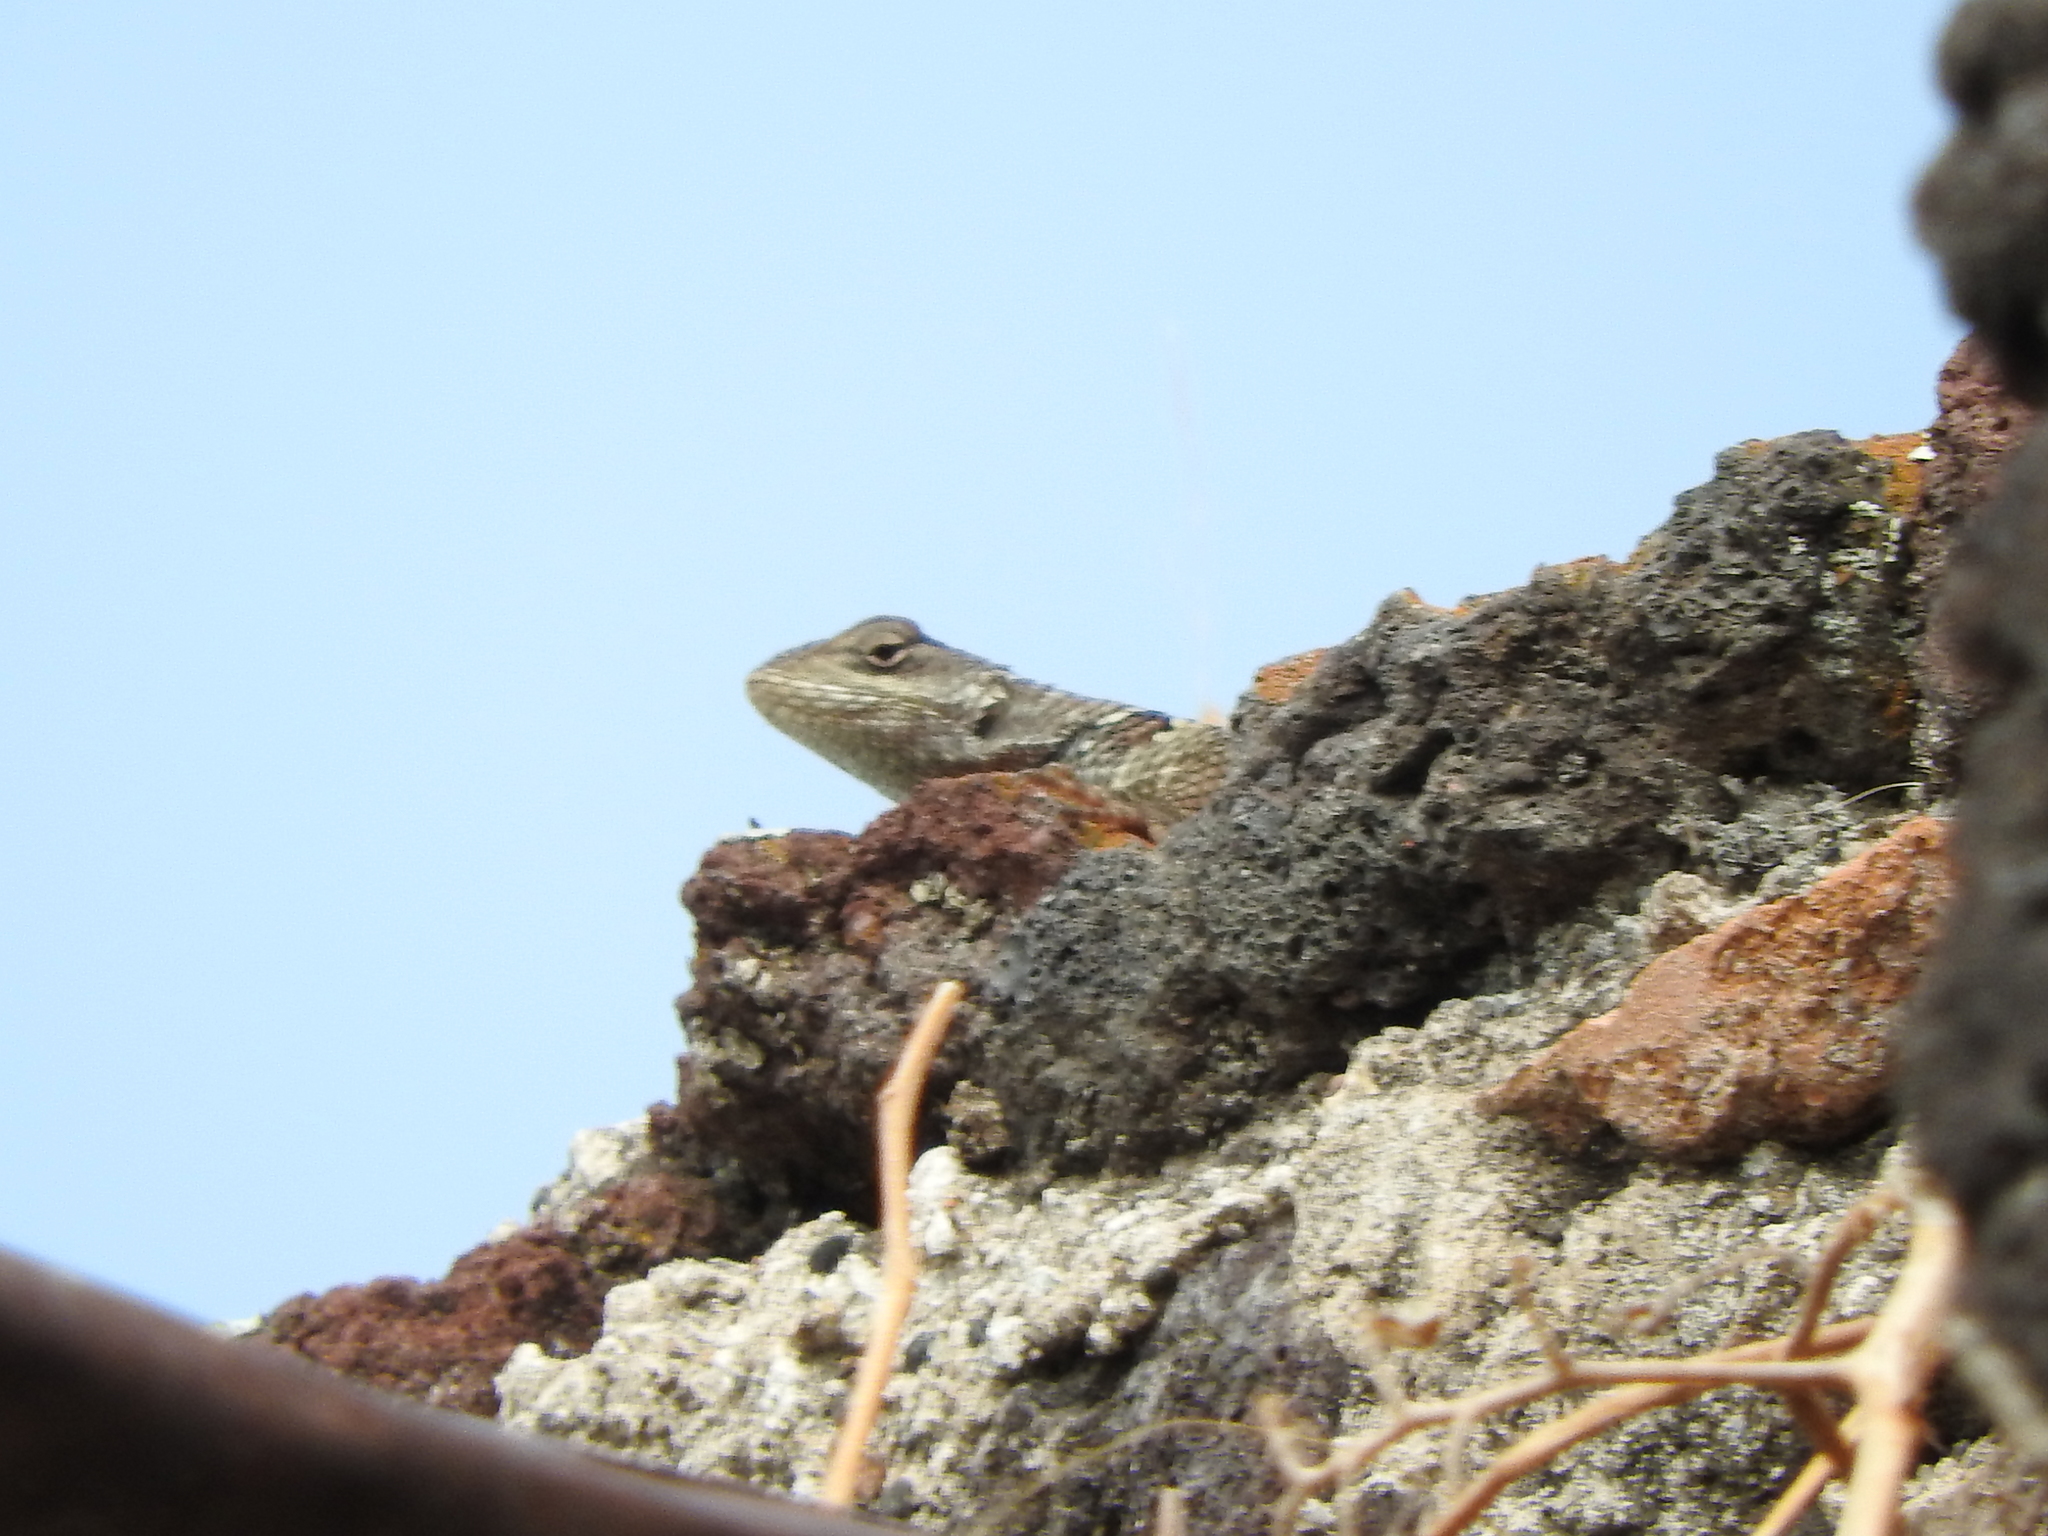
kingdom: Animalia
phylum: Chordata
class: Squamata
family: Phrynosomatidae
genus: Sceloporus
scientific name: Sceloporus torquatus
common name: Central plateau torquate lizard [melanogaster]
